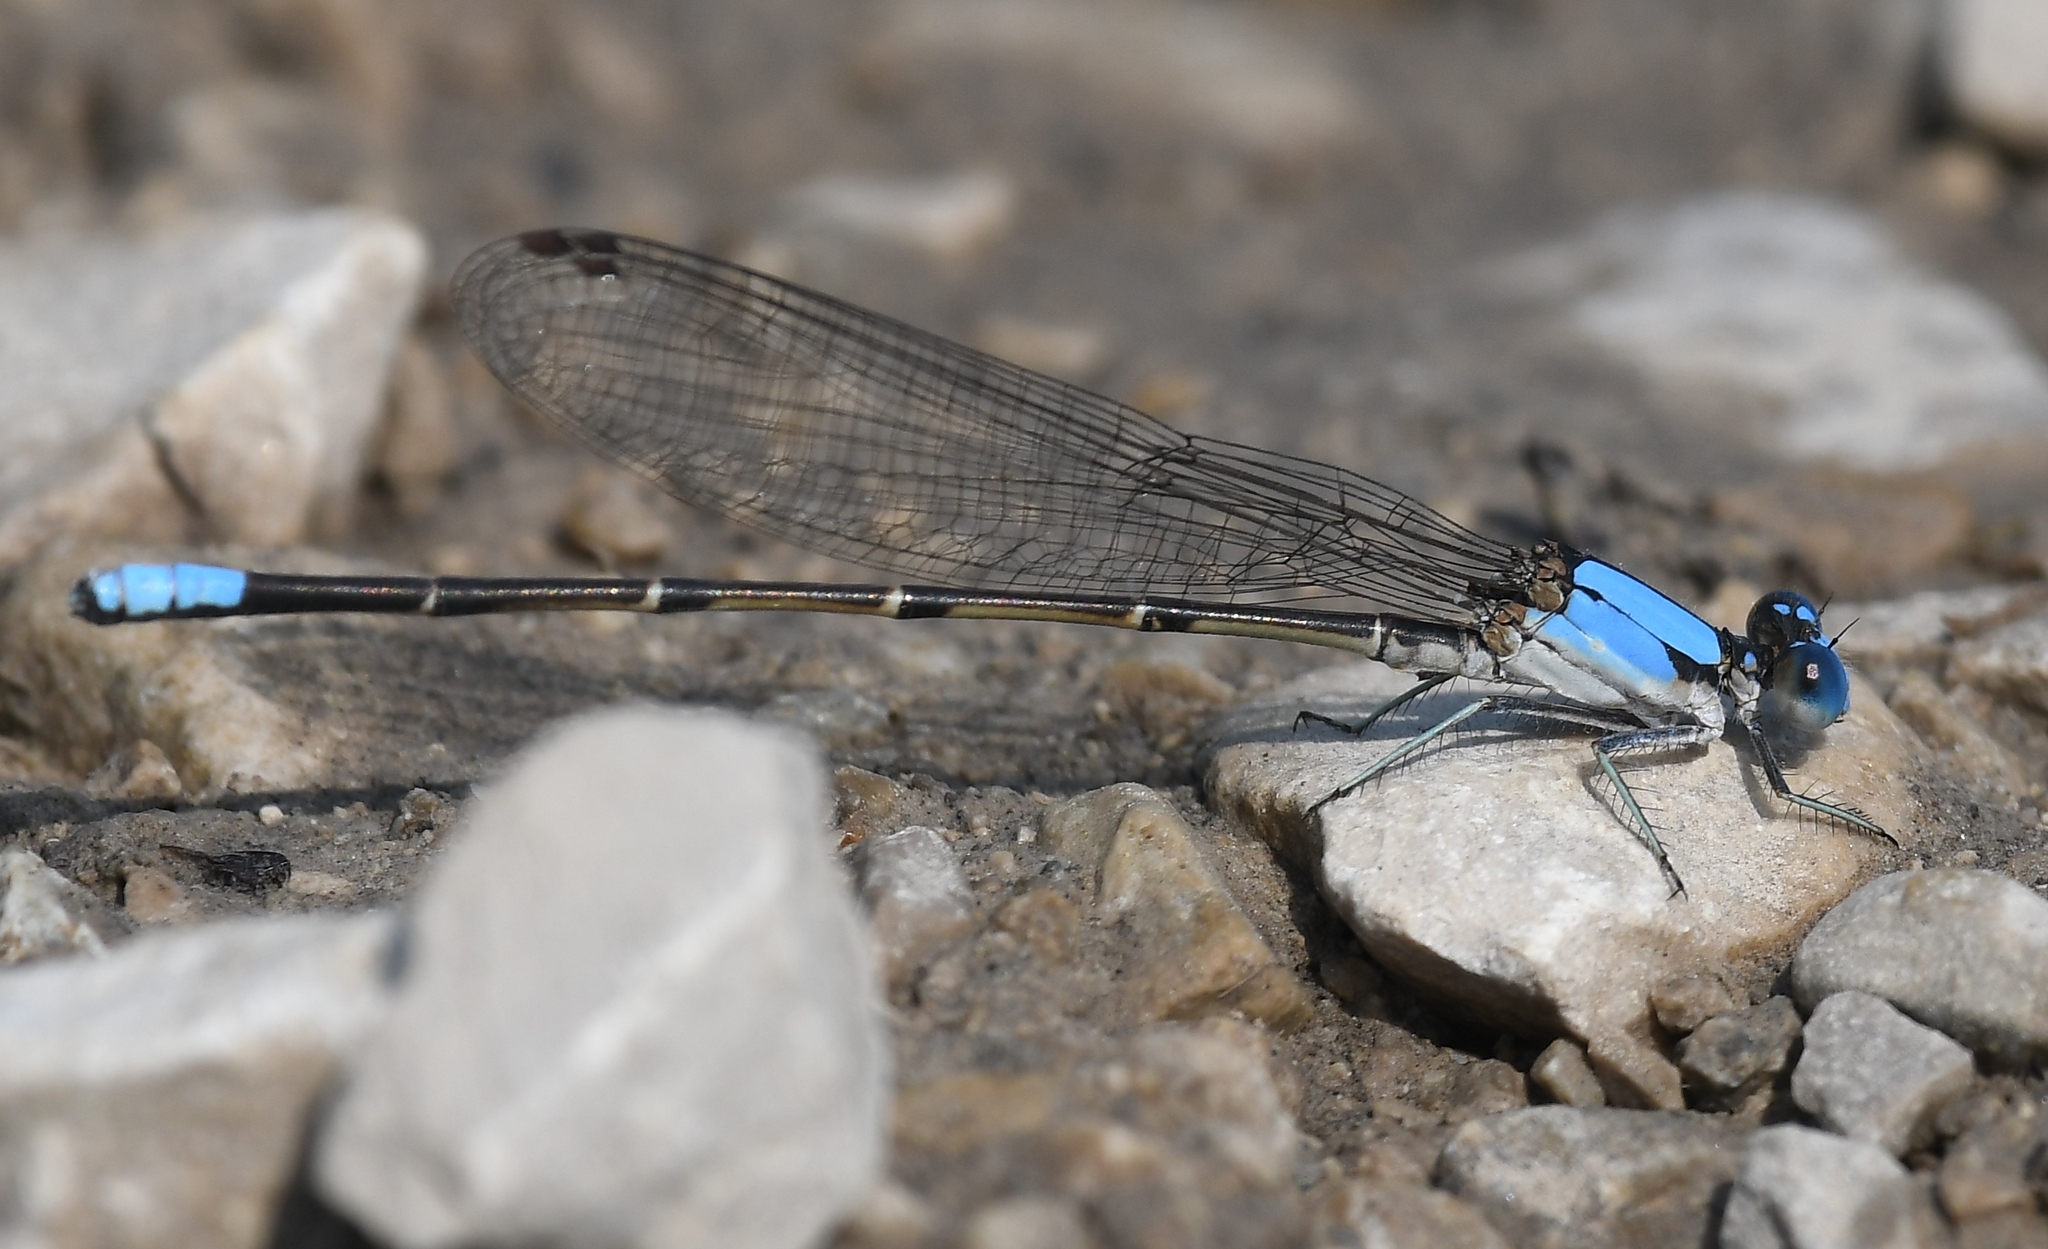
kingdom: Animalia
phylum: Arthropoda
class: Insecta
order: Odonata
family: Coenagrionidae
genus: Argia
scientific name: Argia apicalis
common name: Blue-fronted dancer
